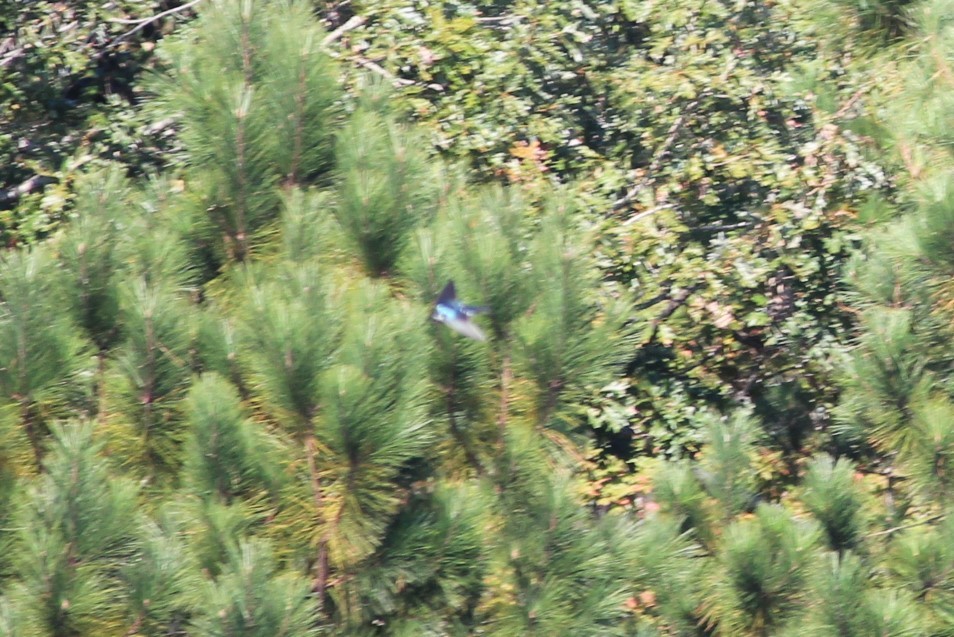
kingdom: Animalia
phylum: Chordata
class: Aves
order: Passeriformes
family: Hirundinidae
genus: Tachycineta
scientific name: Tachycineta bicolor
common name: Tree swallow
